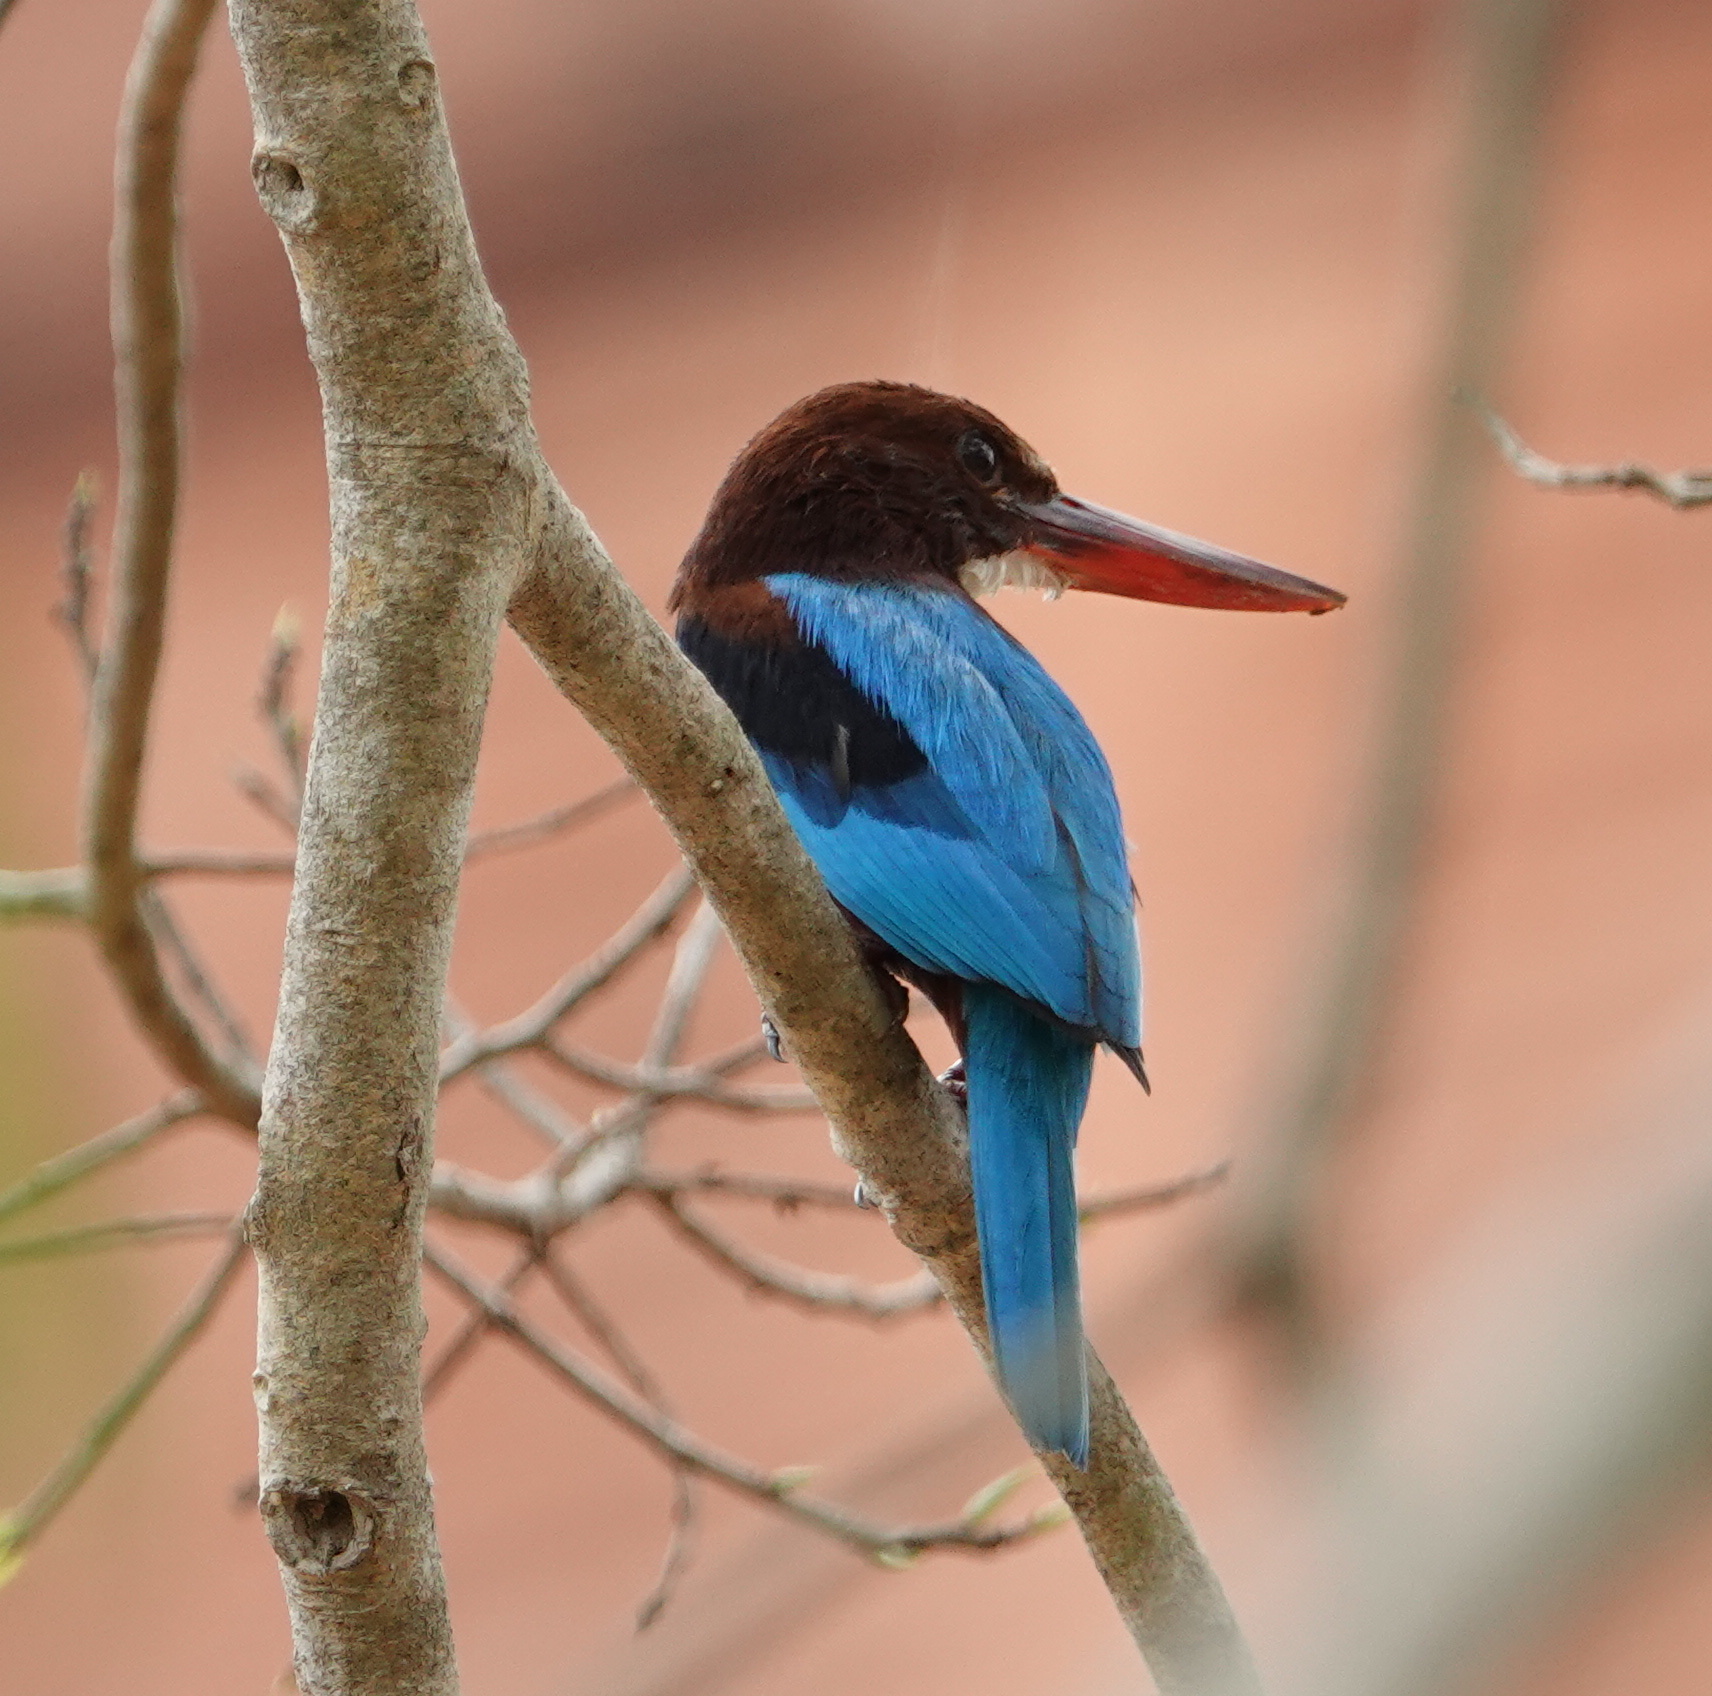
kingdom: Animalia
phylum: Chordata
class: Aves
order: Coraciiformes
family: Alcedinidae
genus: Halcyon
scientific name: Halcyon smyrnensis
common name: White-throated kingfisher
